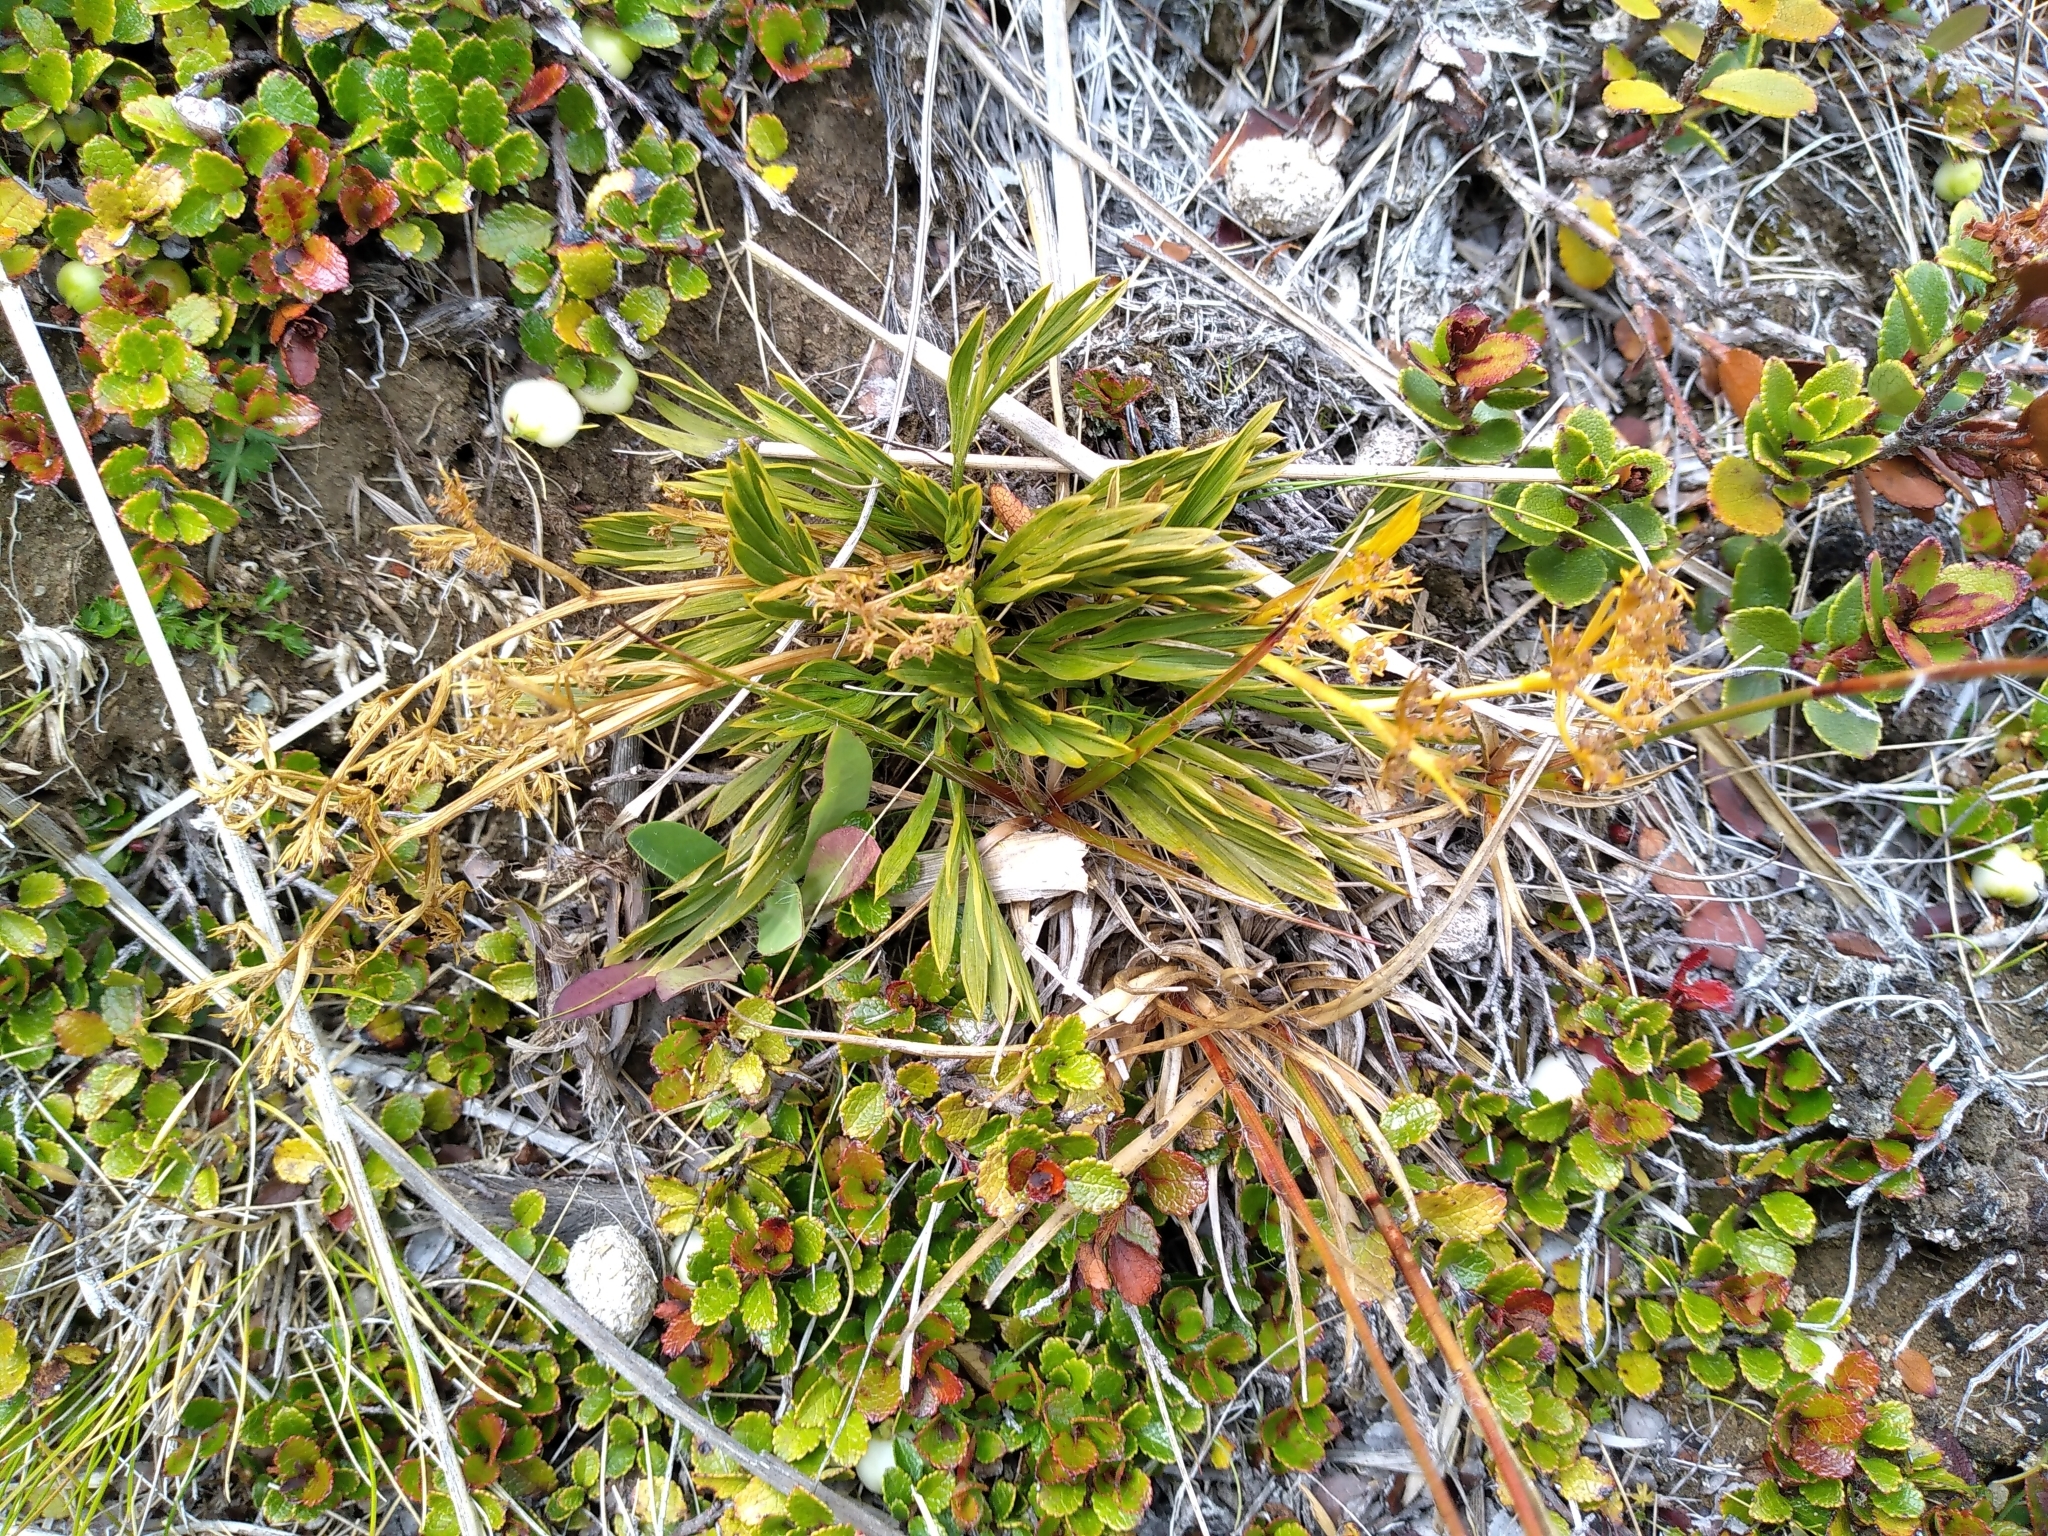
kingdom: Plantae
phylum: Tracheophyta
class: Magnoliopsida
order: Apiales
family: Apiaceae
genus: Aciphylla
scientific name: Aciphylla monroi
